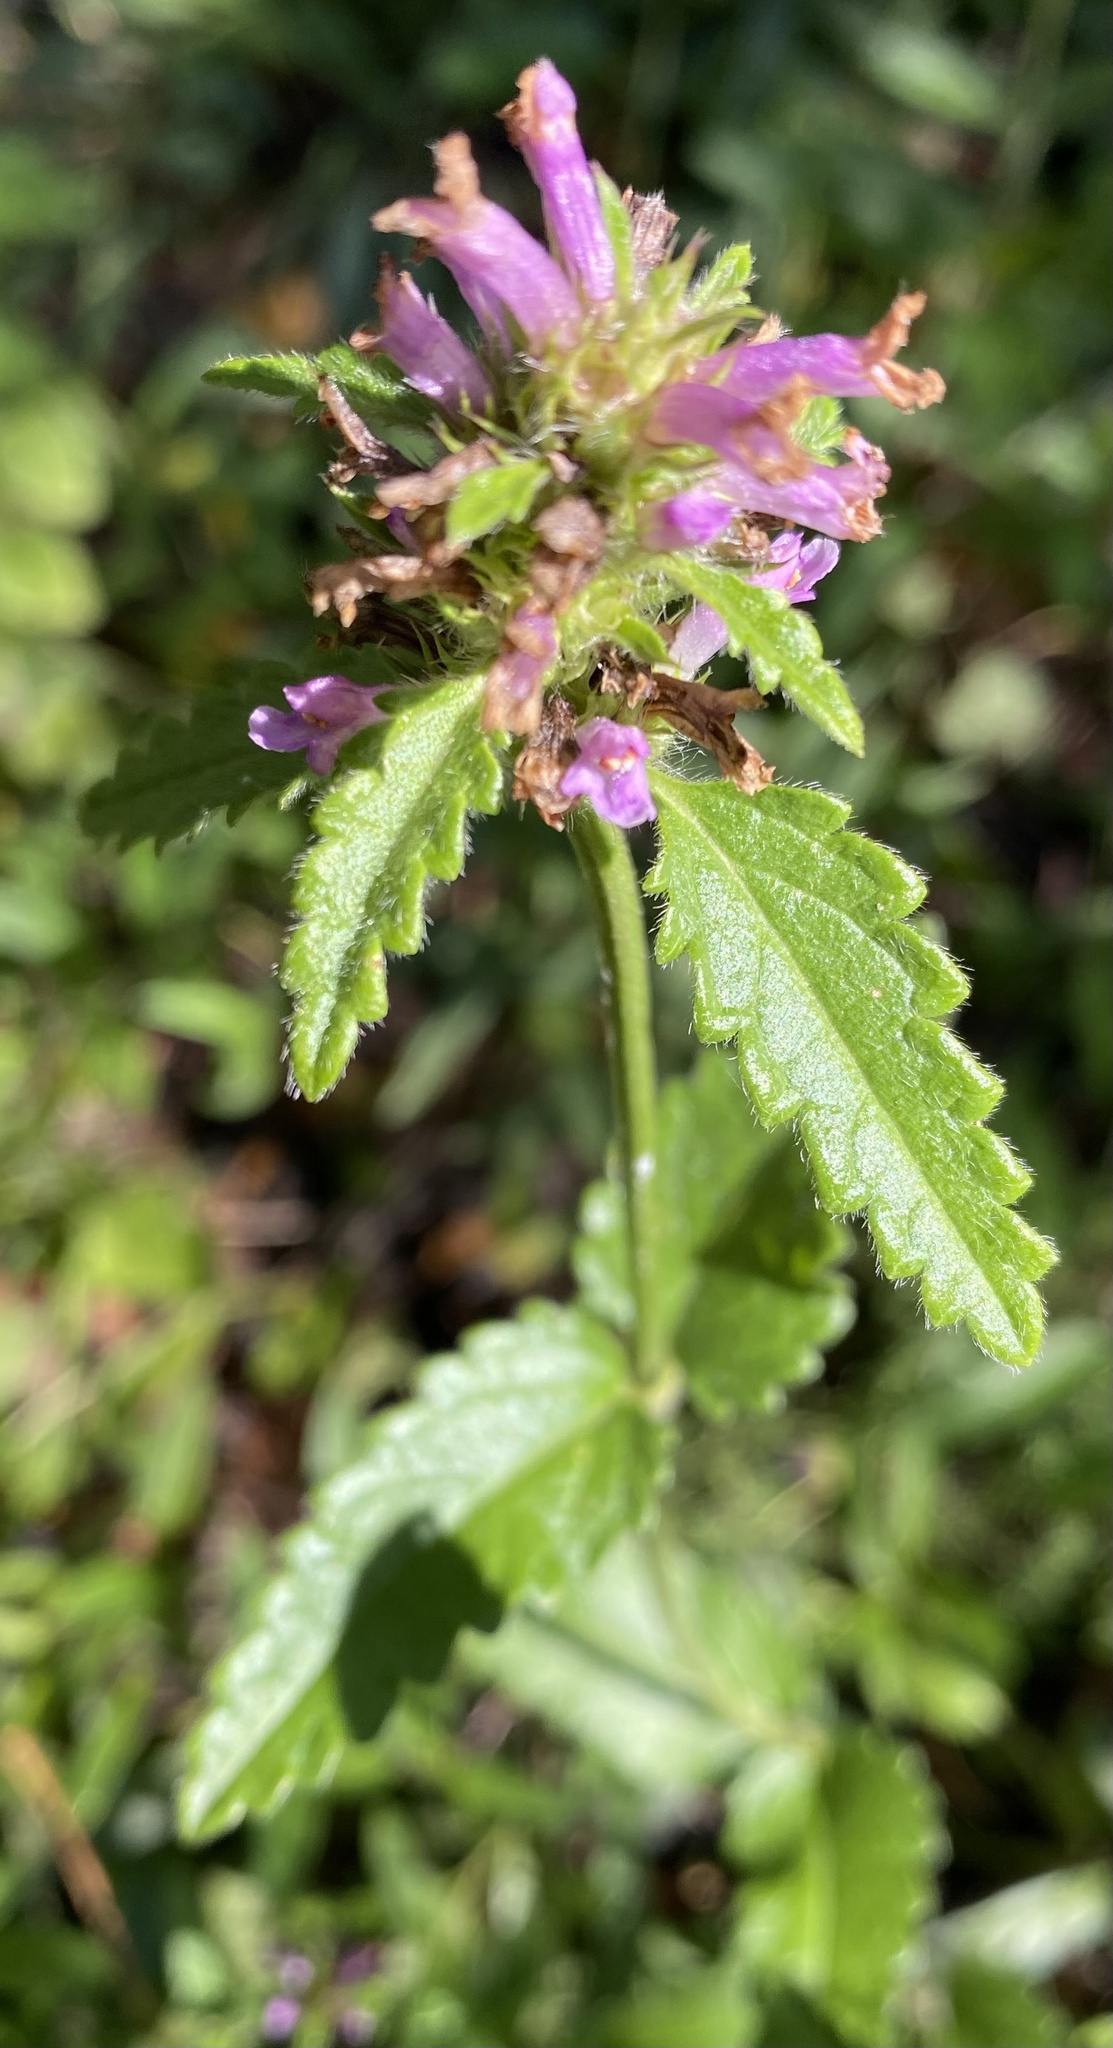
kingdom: Plantae
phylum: Tracheophyta
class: Magnoliopsida
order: Lamiales
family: Lamiaceae
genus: Betonica
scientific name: Betonica officinalis
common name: Bishop's-wort
